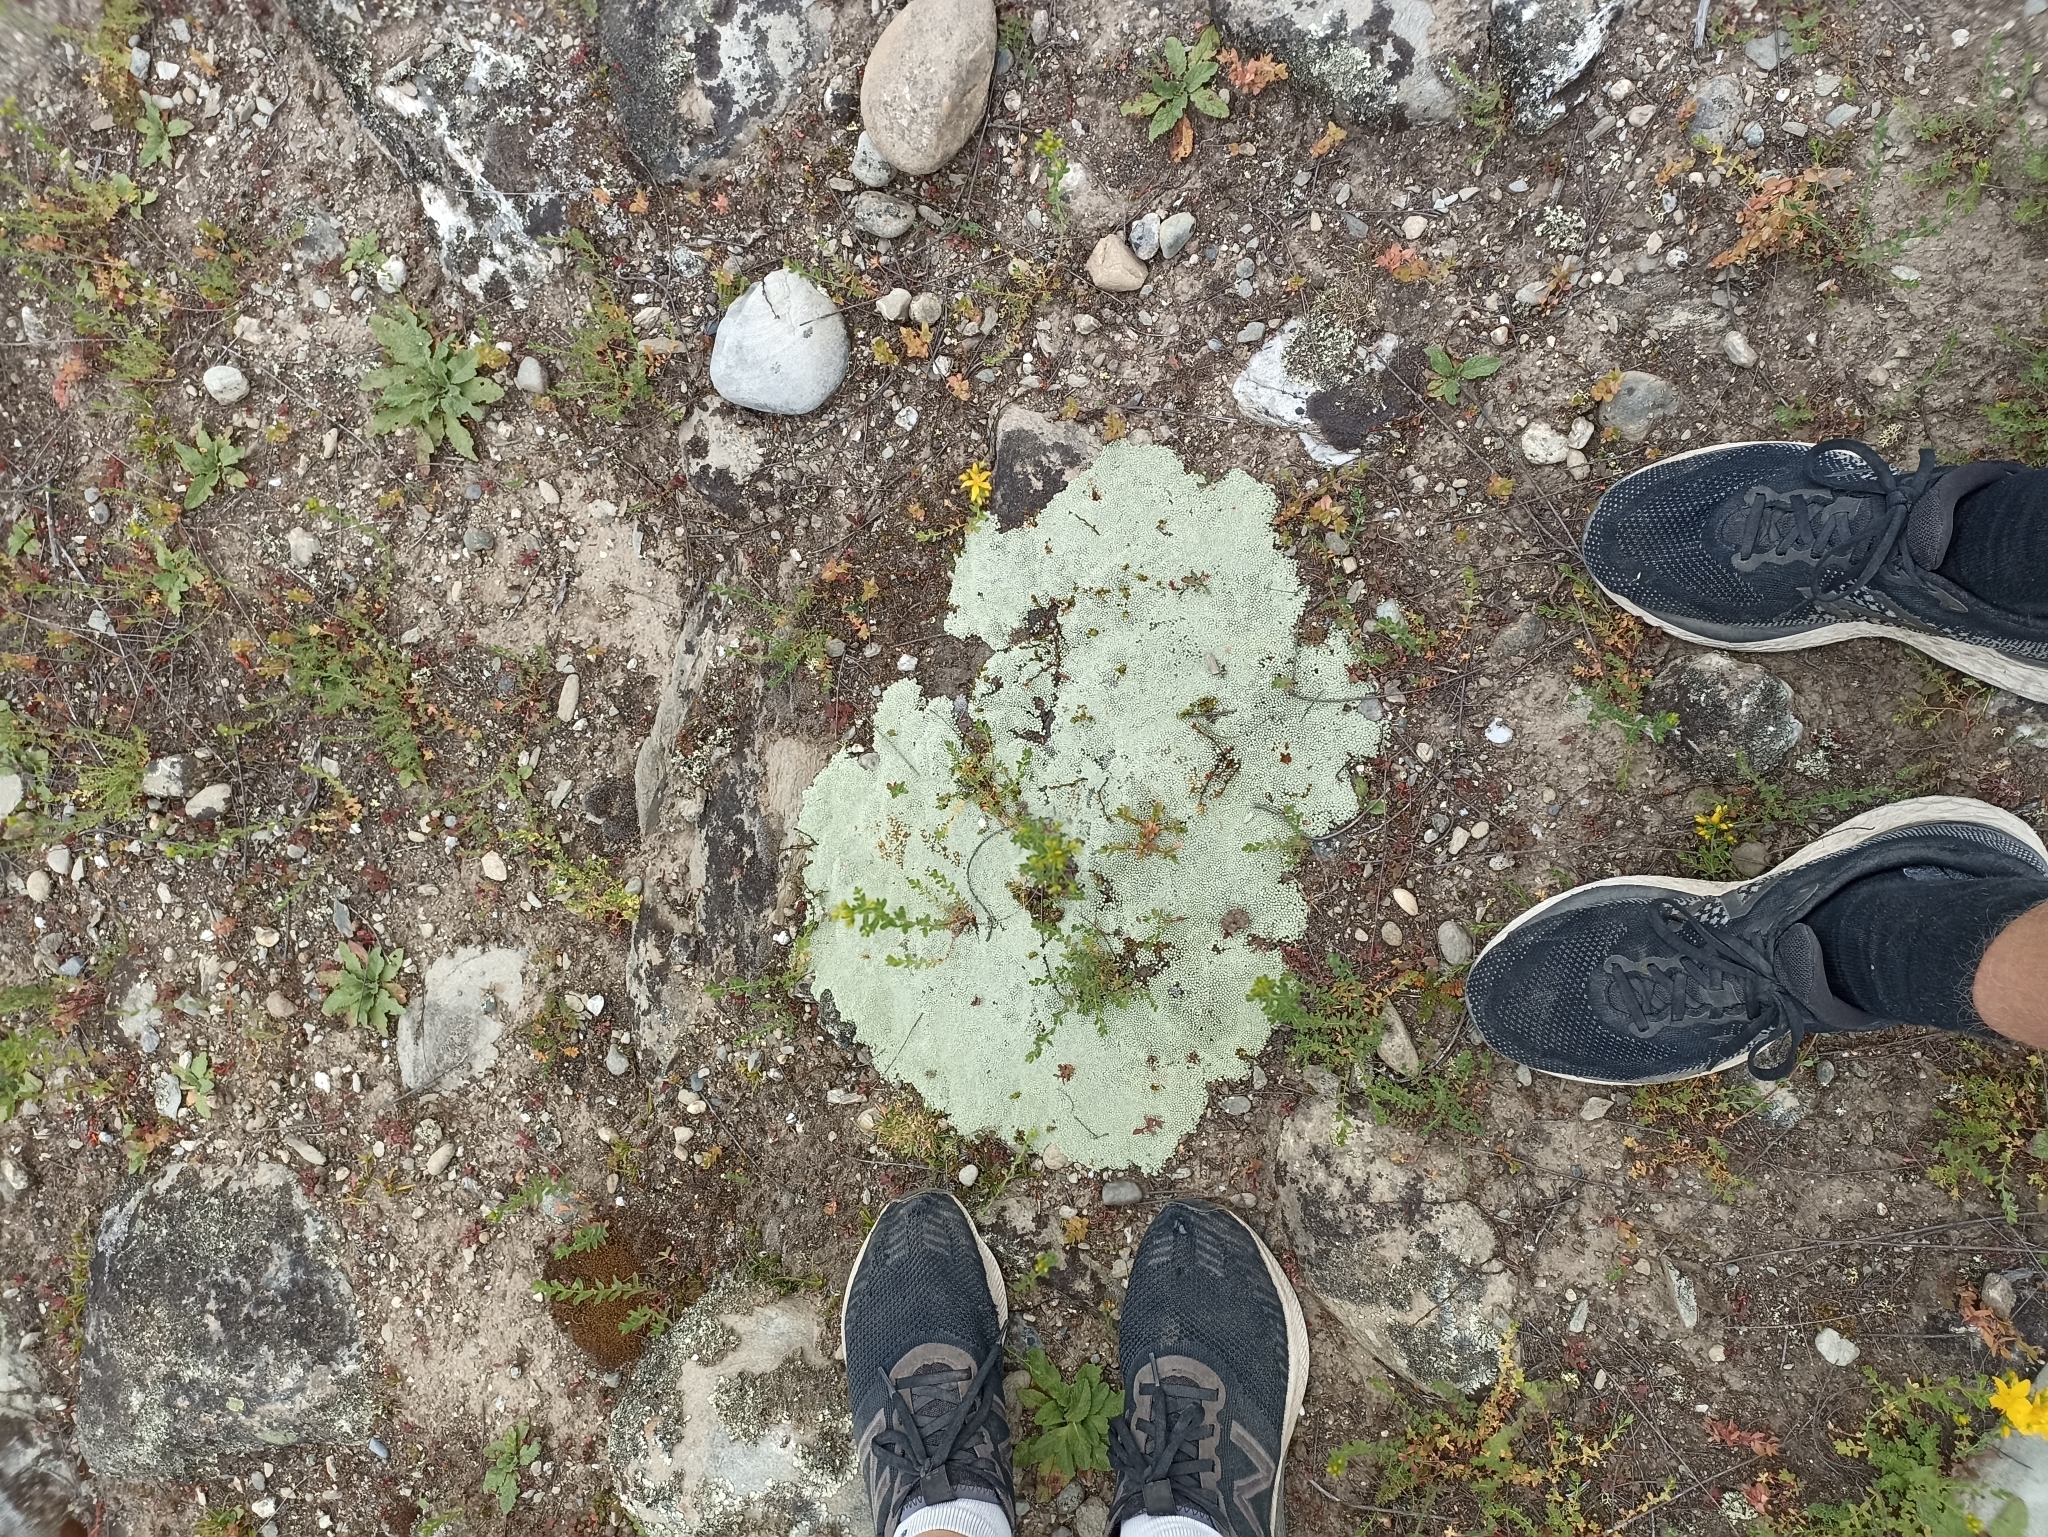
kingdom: Plantae
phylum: Tracheophyta
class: Magnoliopsida
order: Asterales
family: Asteraceae
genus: Raoulia
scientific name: Raoulia australis
